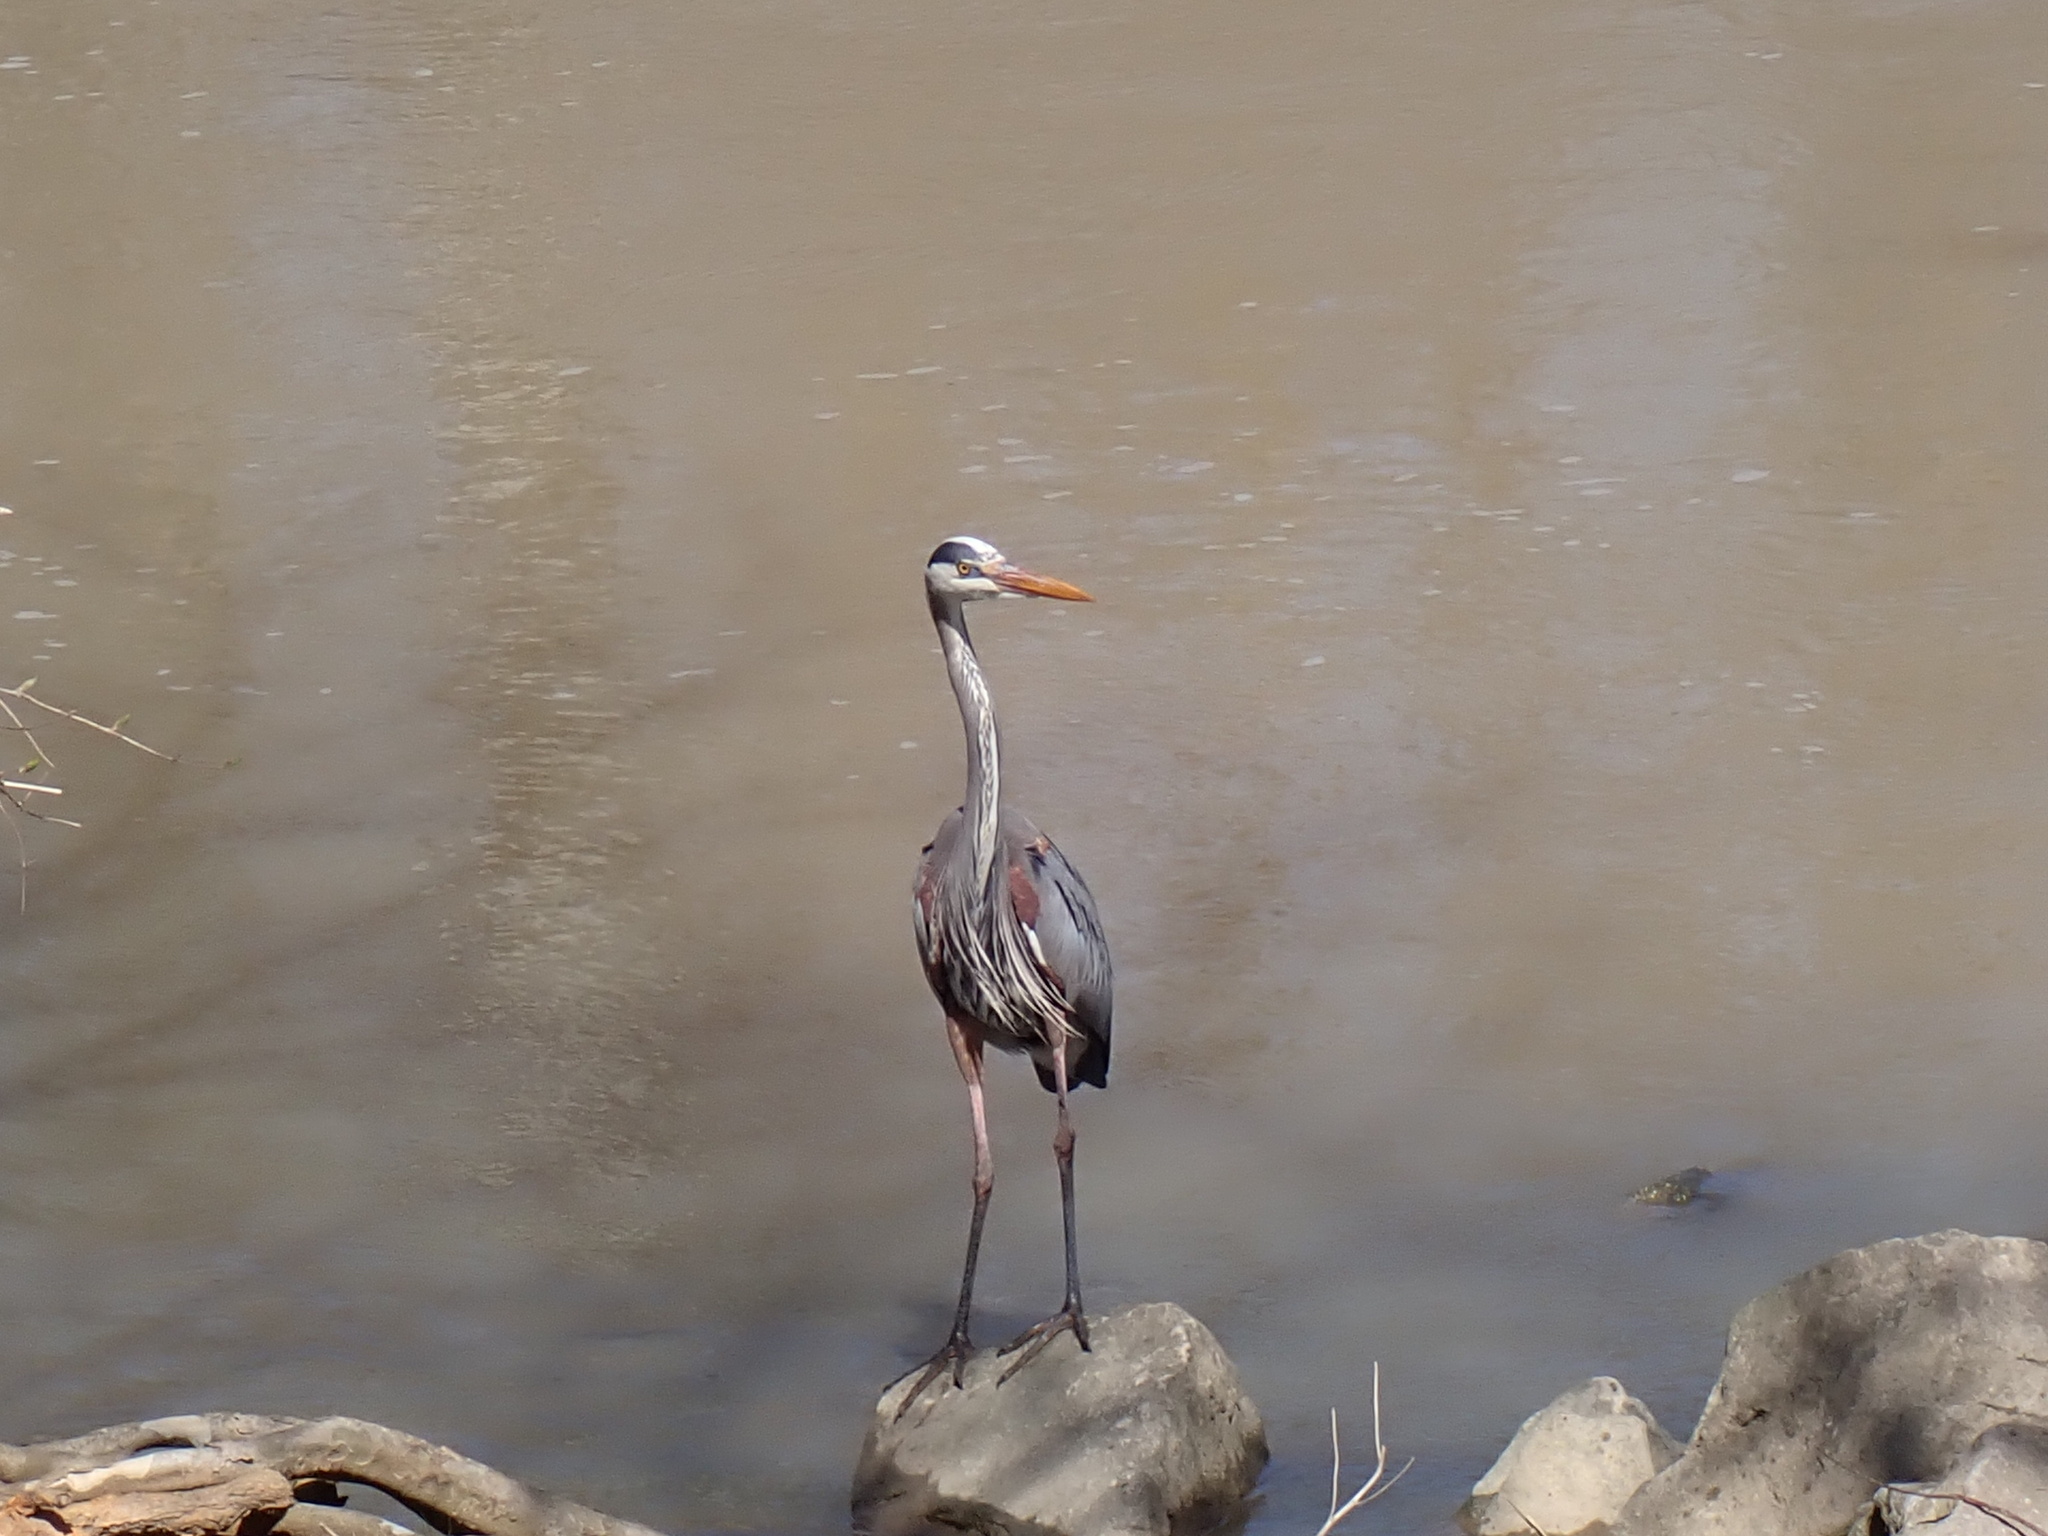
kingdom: Animalia
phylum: Chordata
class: Aves
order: Pelecaniformes
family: Ardeidae
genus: Ardea
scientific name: Ardea herodias
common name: Great blue heron
